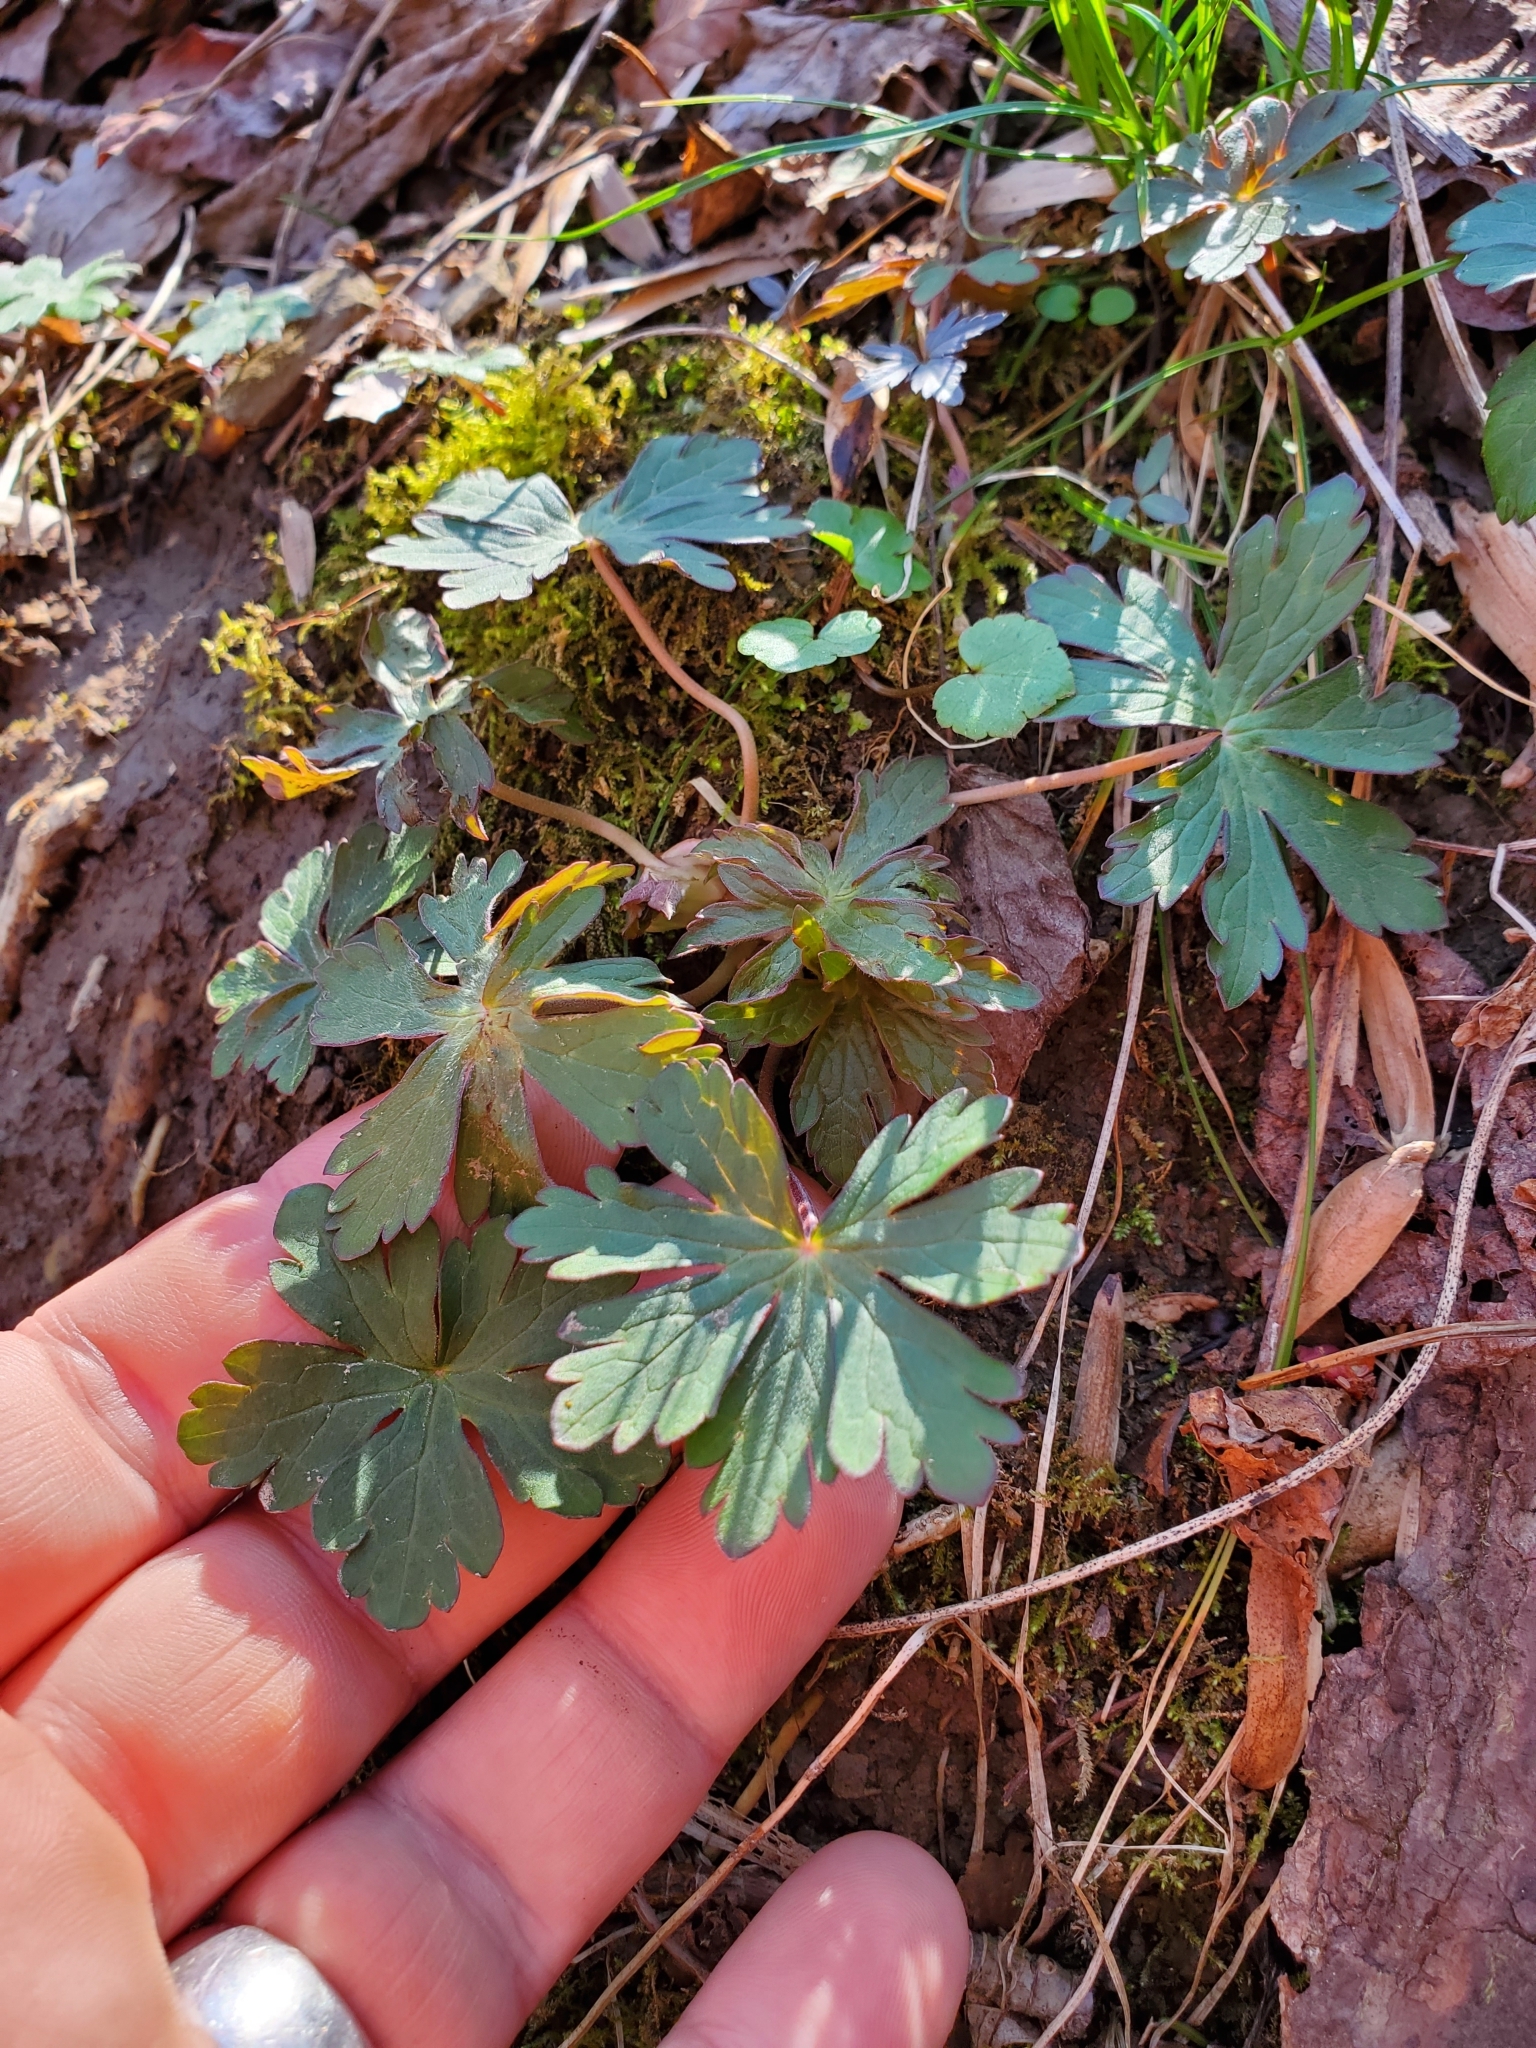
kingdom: Plantae
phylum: Tracheophyta
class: Magnoliopsida
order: Geraniales
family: Geraniaceae
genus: Geranium
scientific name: Geranium maculatum
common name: Spotted geranium
